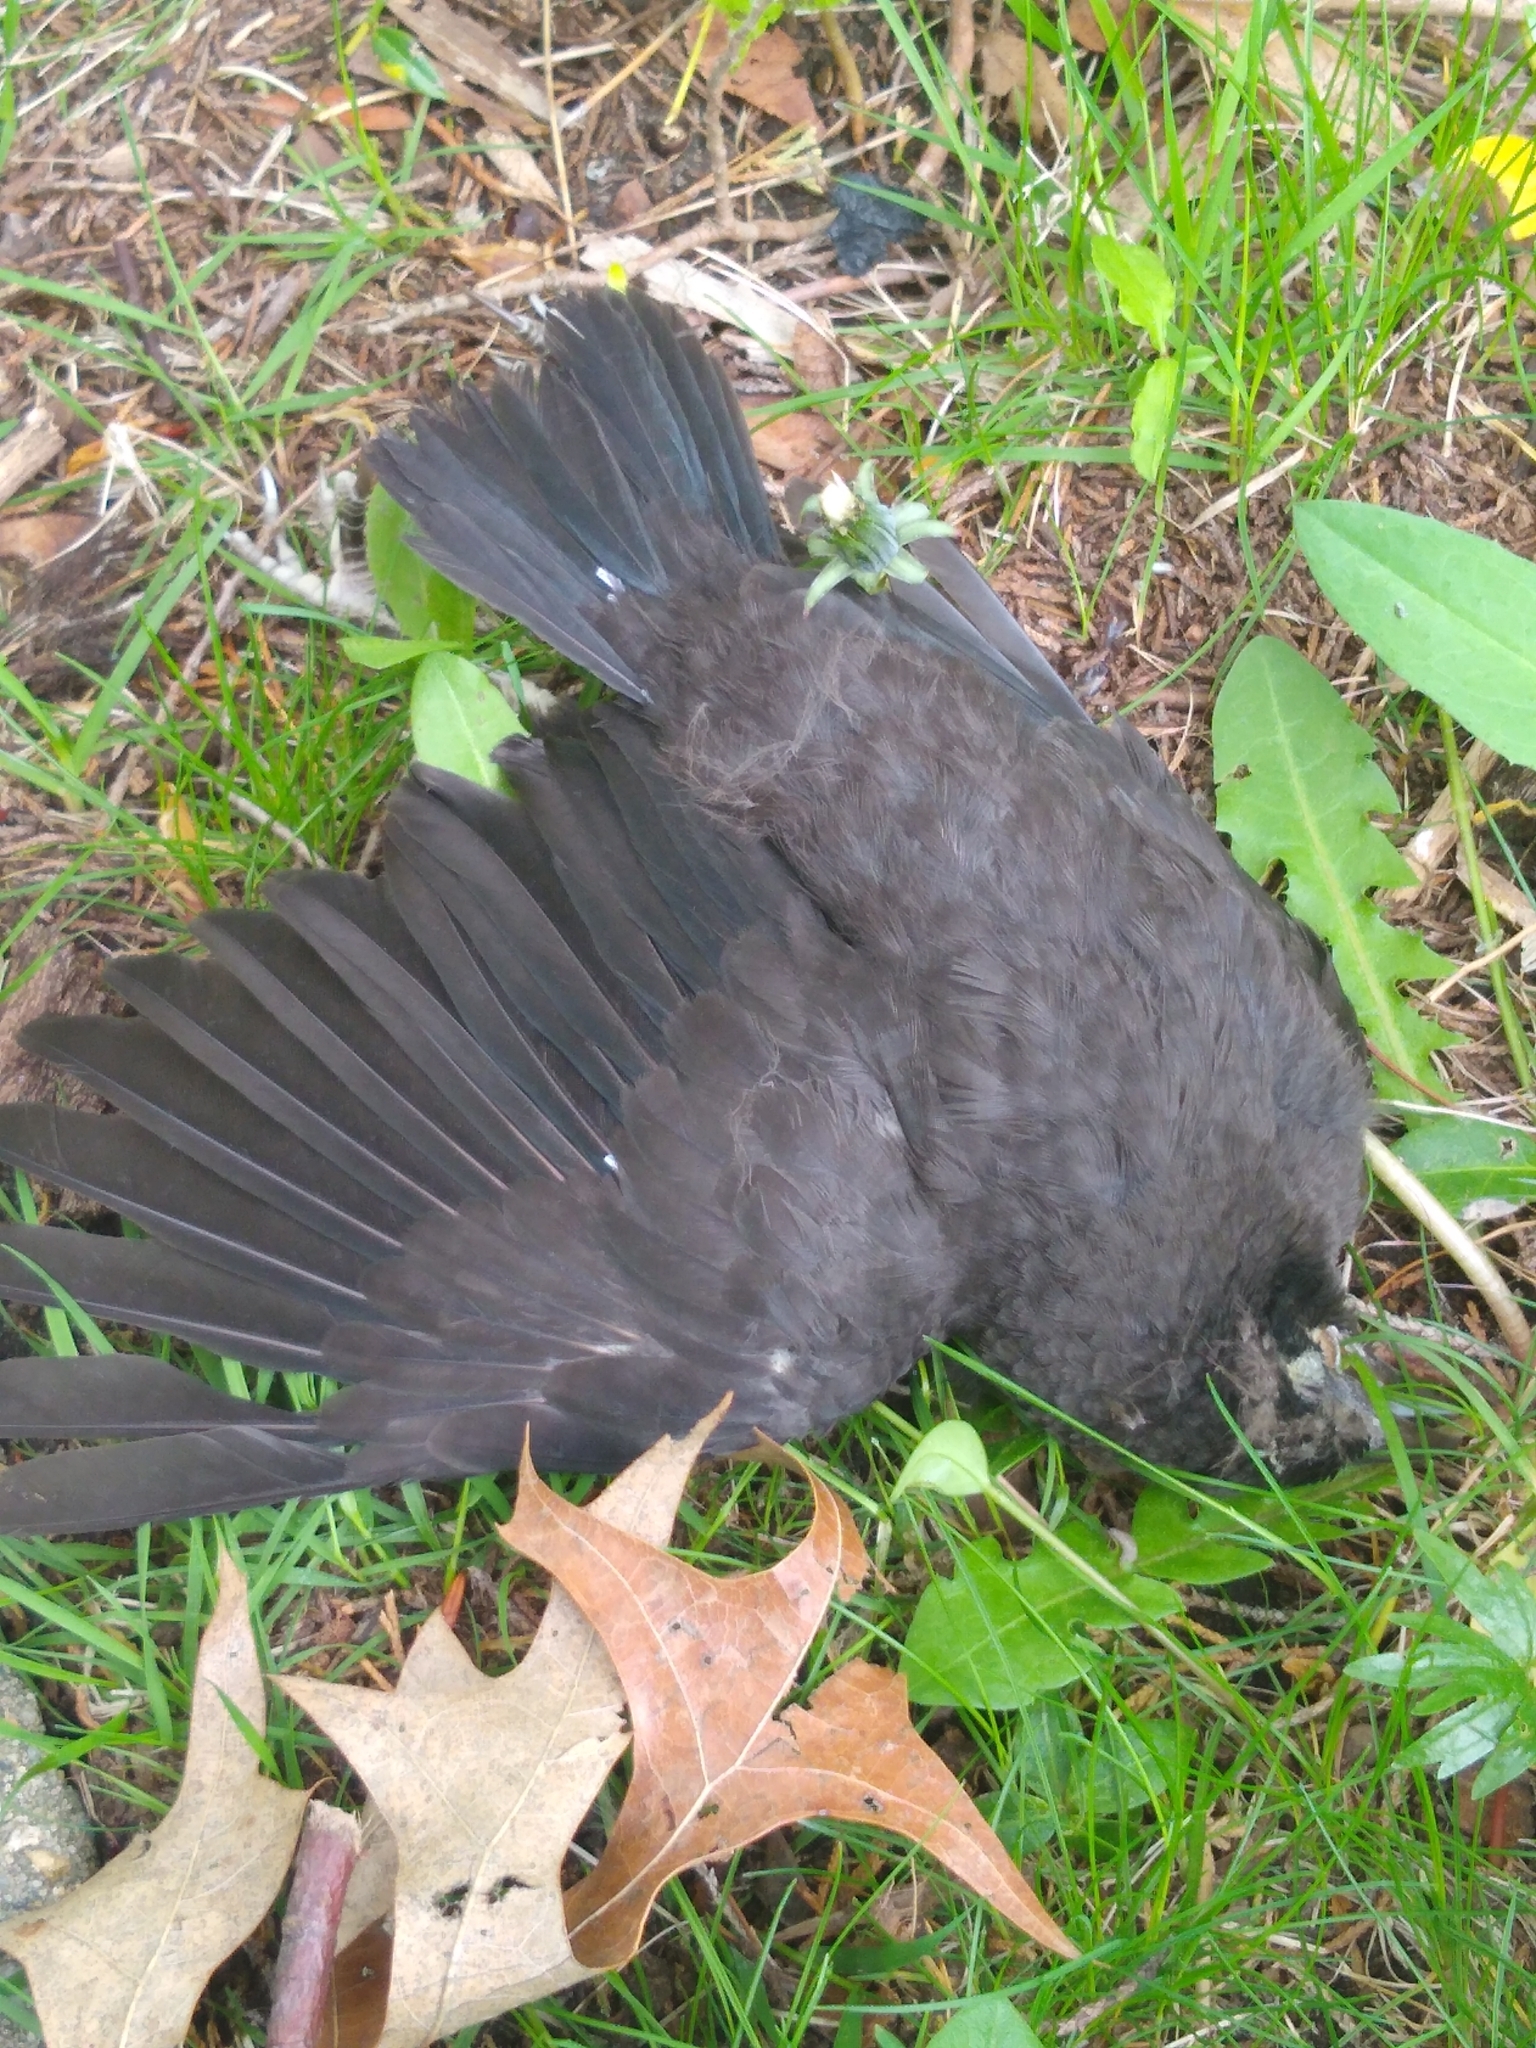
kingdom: Animalia
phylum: Chordata
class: Aves
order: Passeriformes
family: Corvidae
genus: Corvus
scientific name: Corvus brachyrhynchos
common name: American crow
